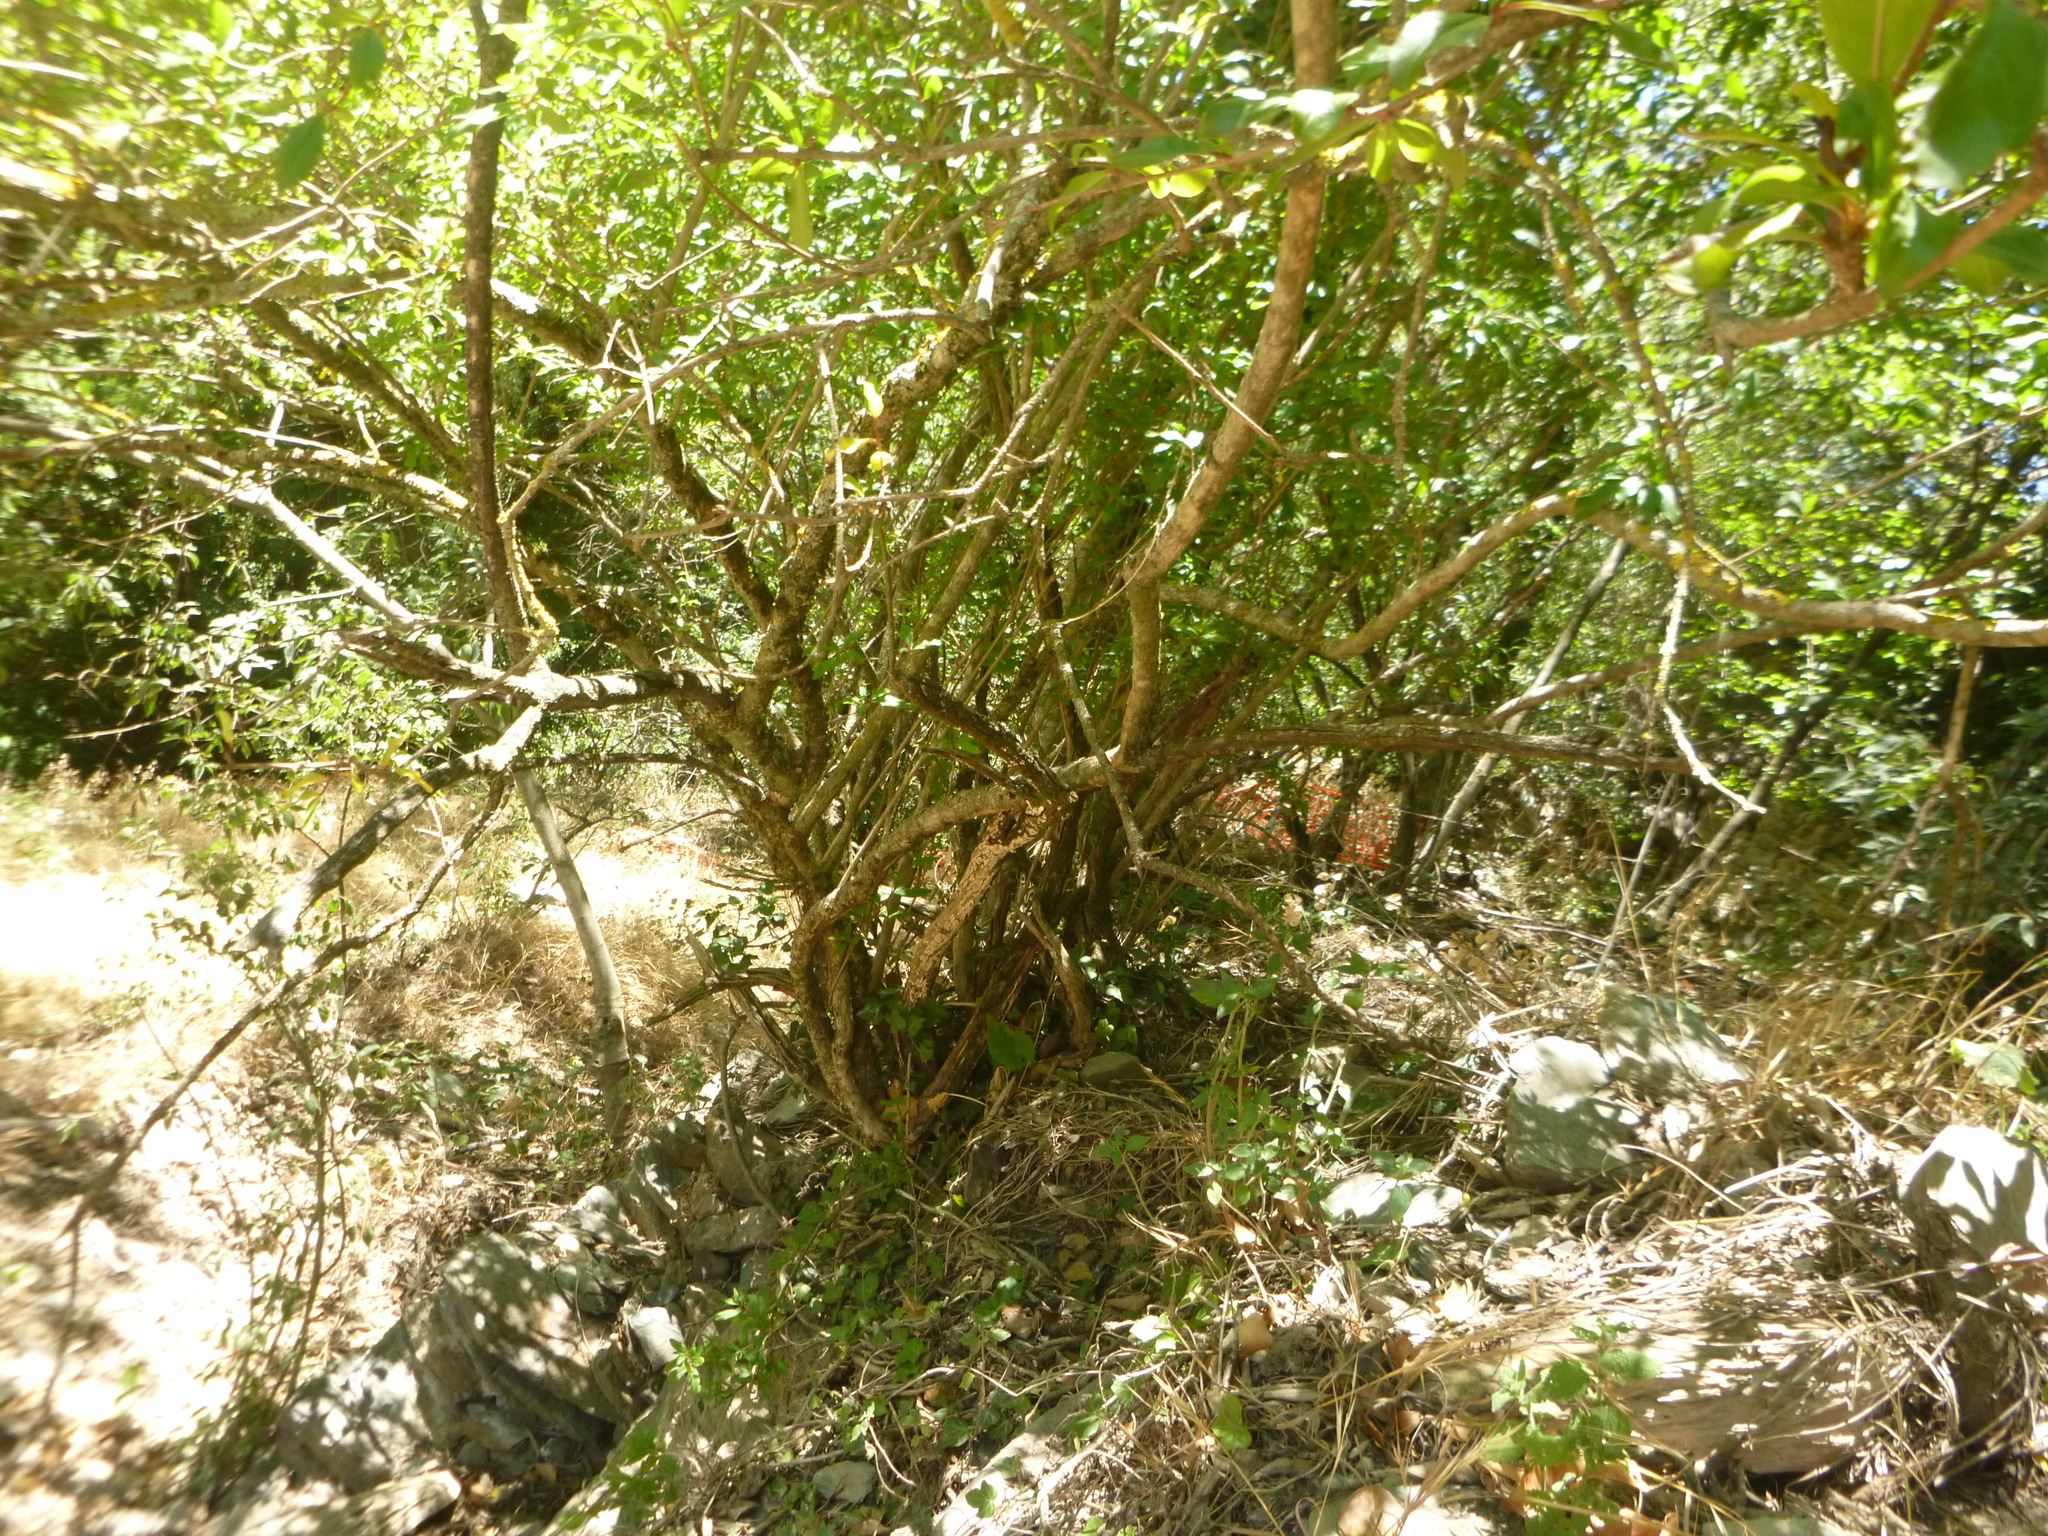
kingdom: Plantae
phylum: Tracheophyta
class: Magnoliopsida
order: Myrtales
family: Lythraceae
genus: Punica
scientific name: Punica granatum
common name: Pomegranate
